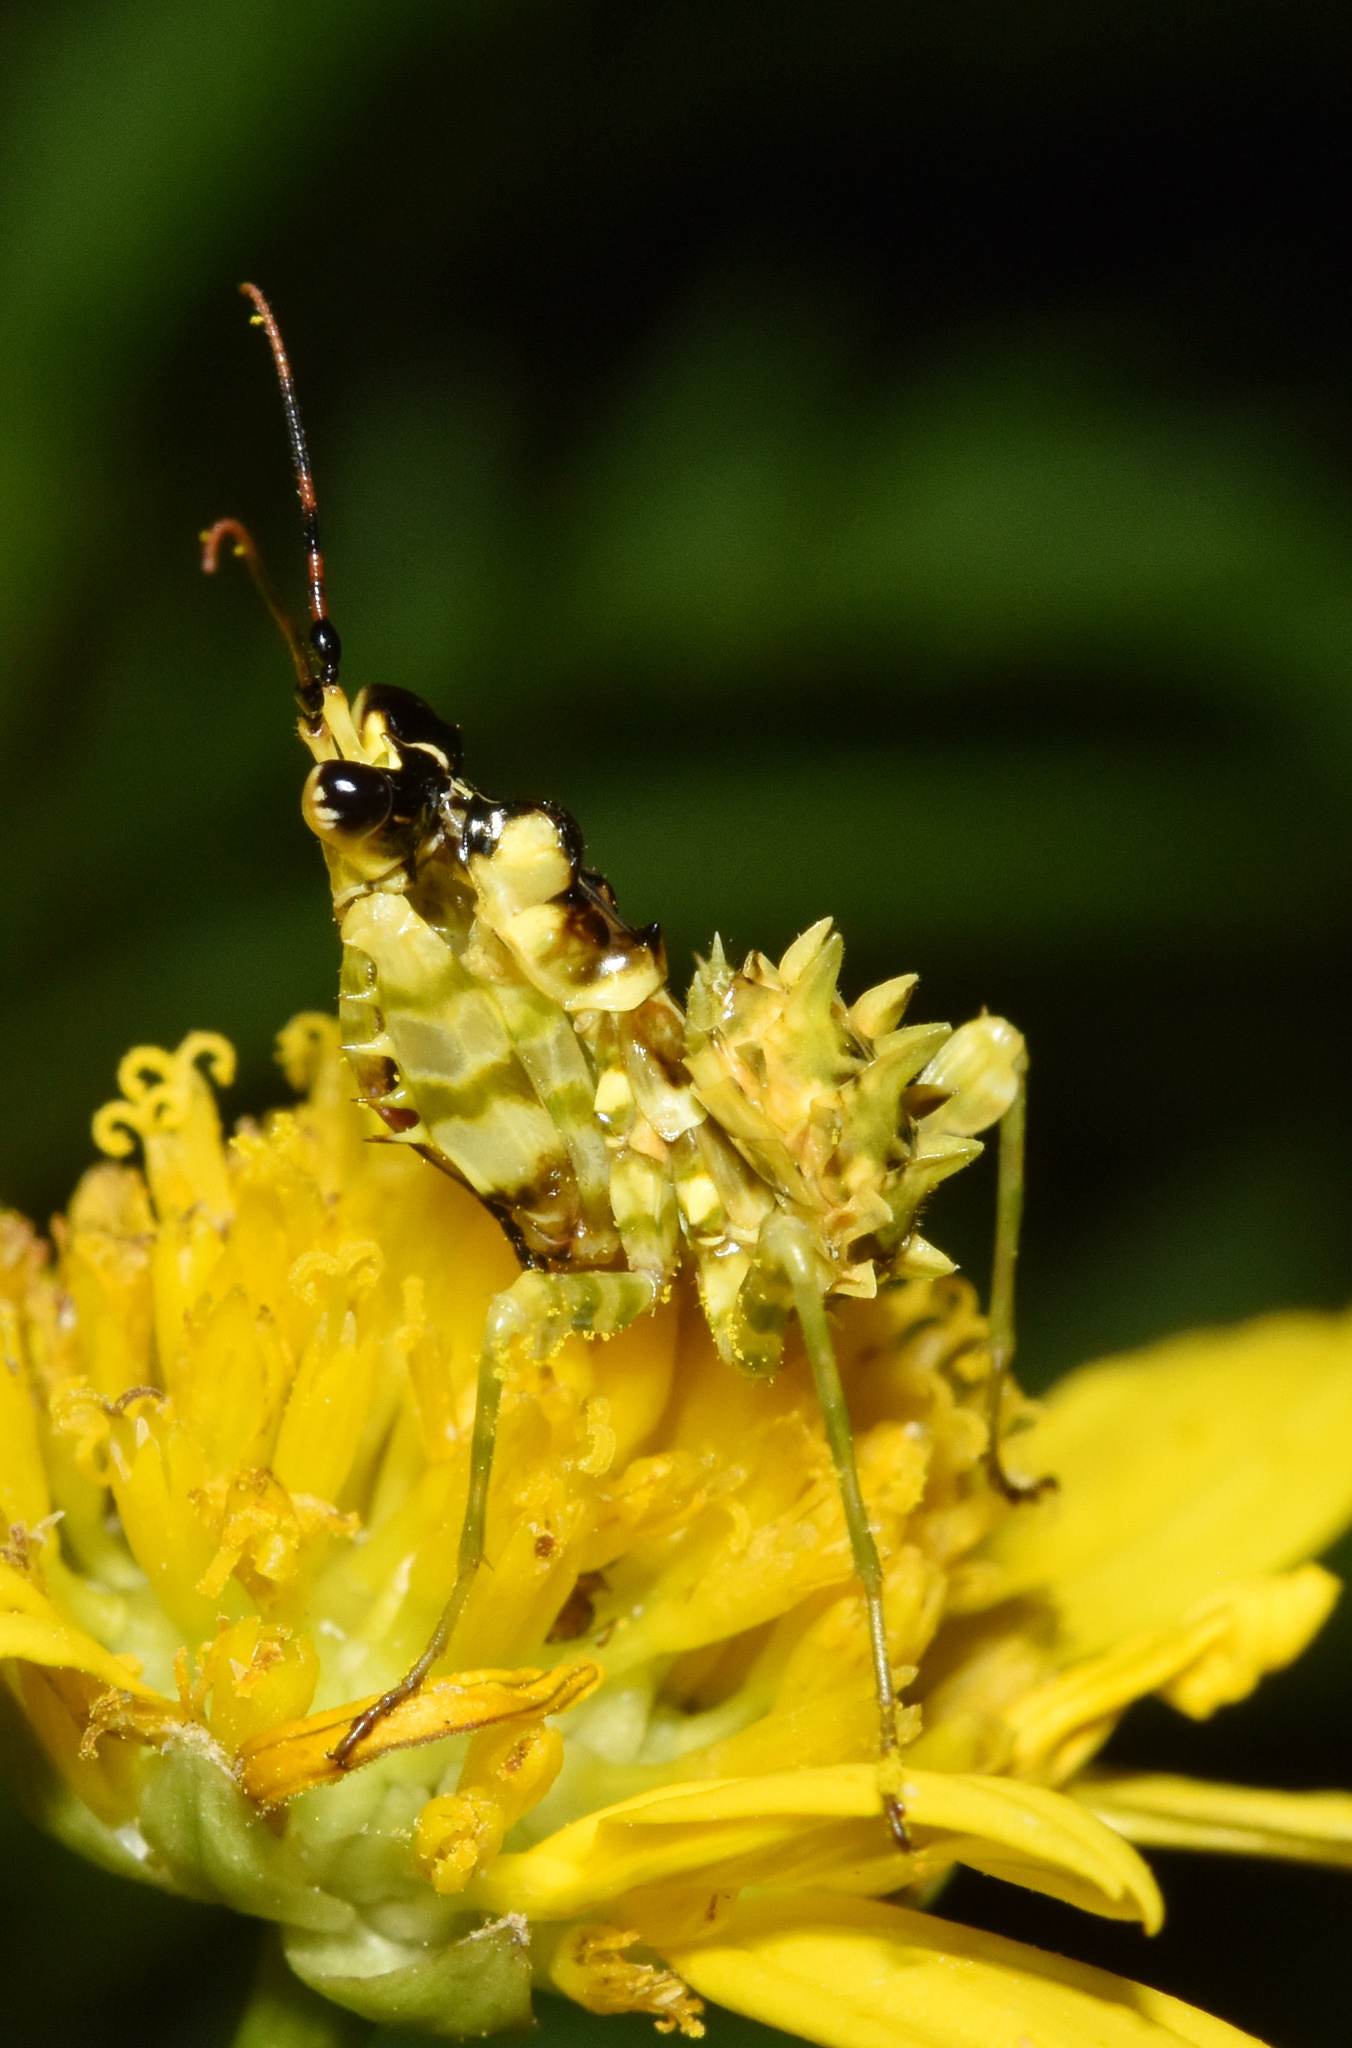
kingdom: Animalia
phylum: Arthropoda
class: Insecta
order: Mantodea
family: Hymenopodidae
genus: Pseudocreobotra
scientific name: Pseudocreobotra wahlbergi
